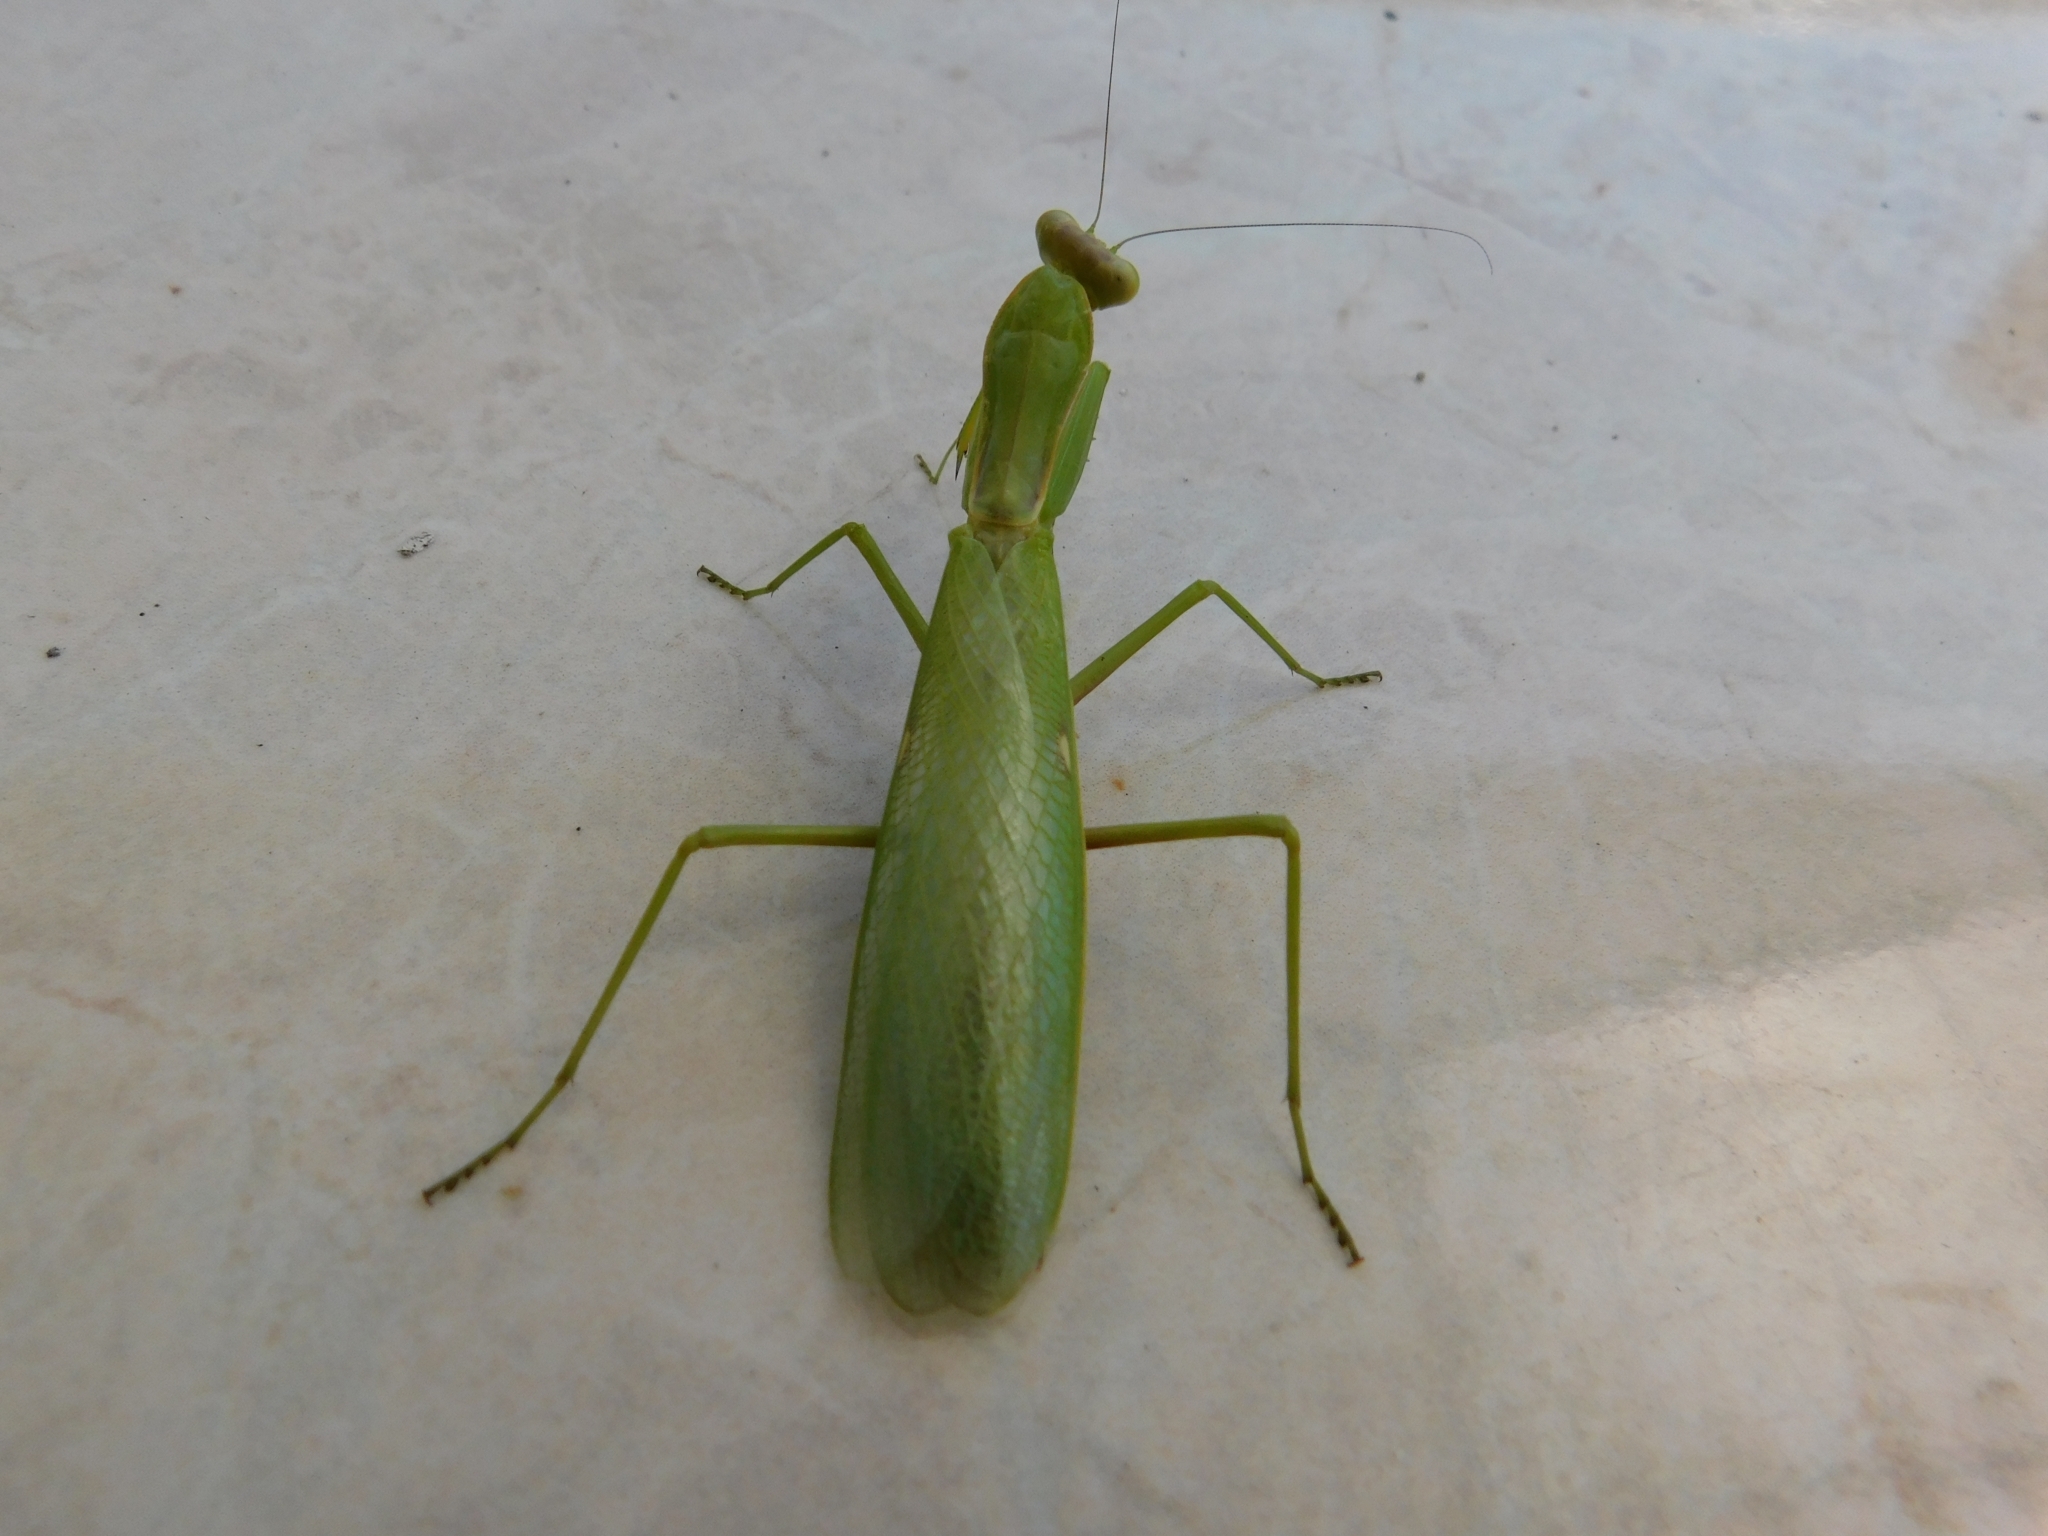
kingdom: Animalia
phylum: Arthropoda
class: Insecta
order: Mantodea
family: Mantidae
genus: Hierodula
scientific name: Hierodula transcaucasica
